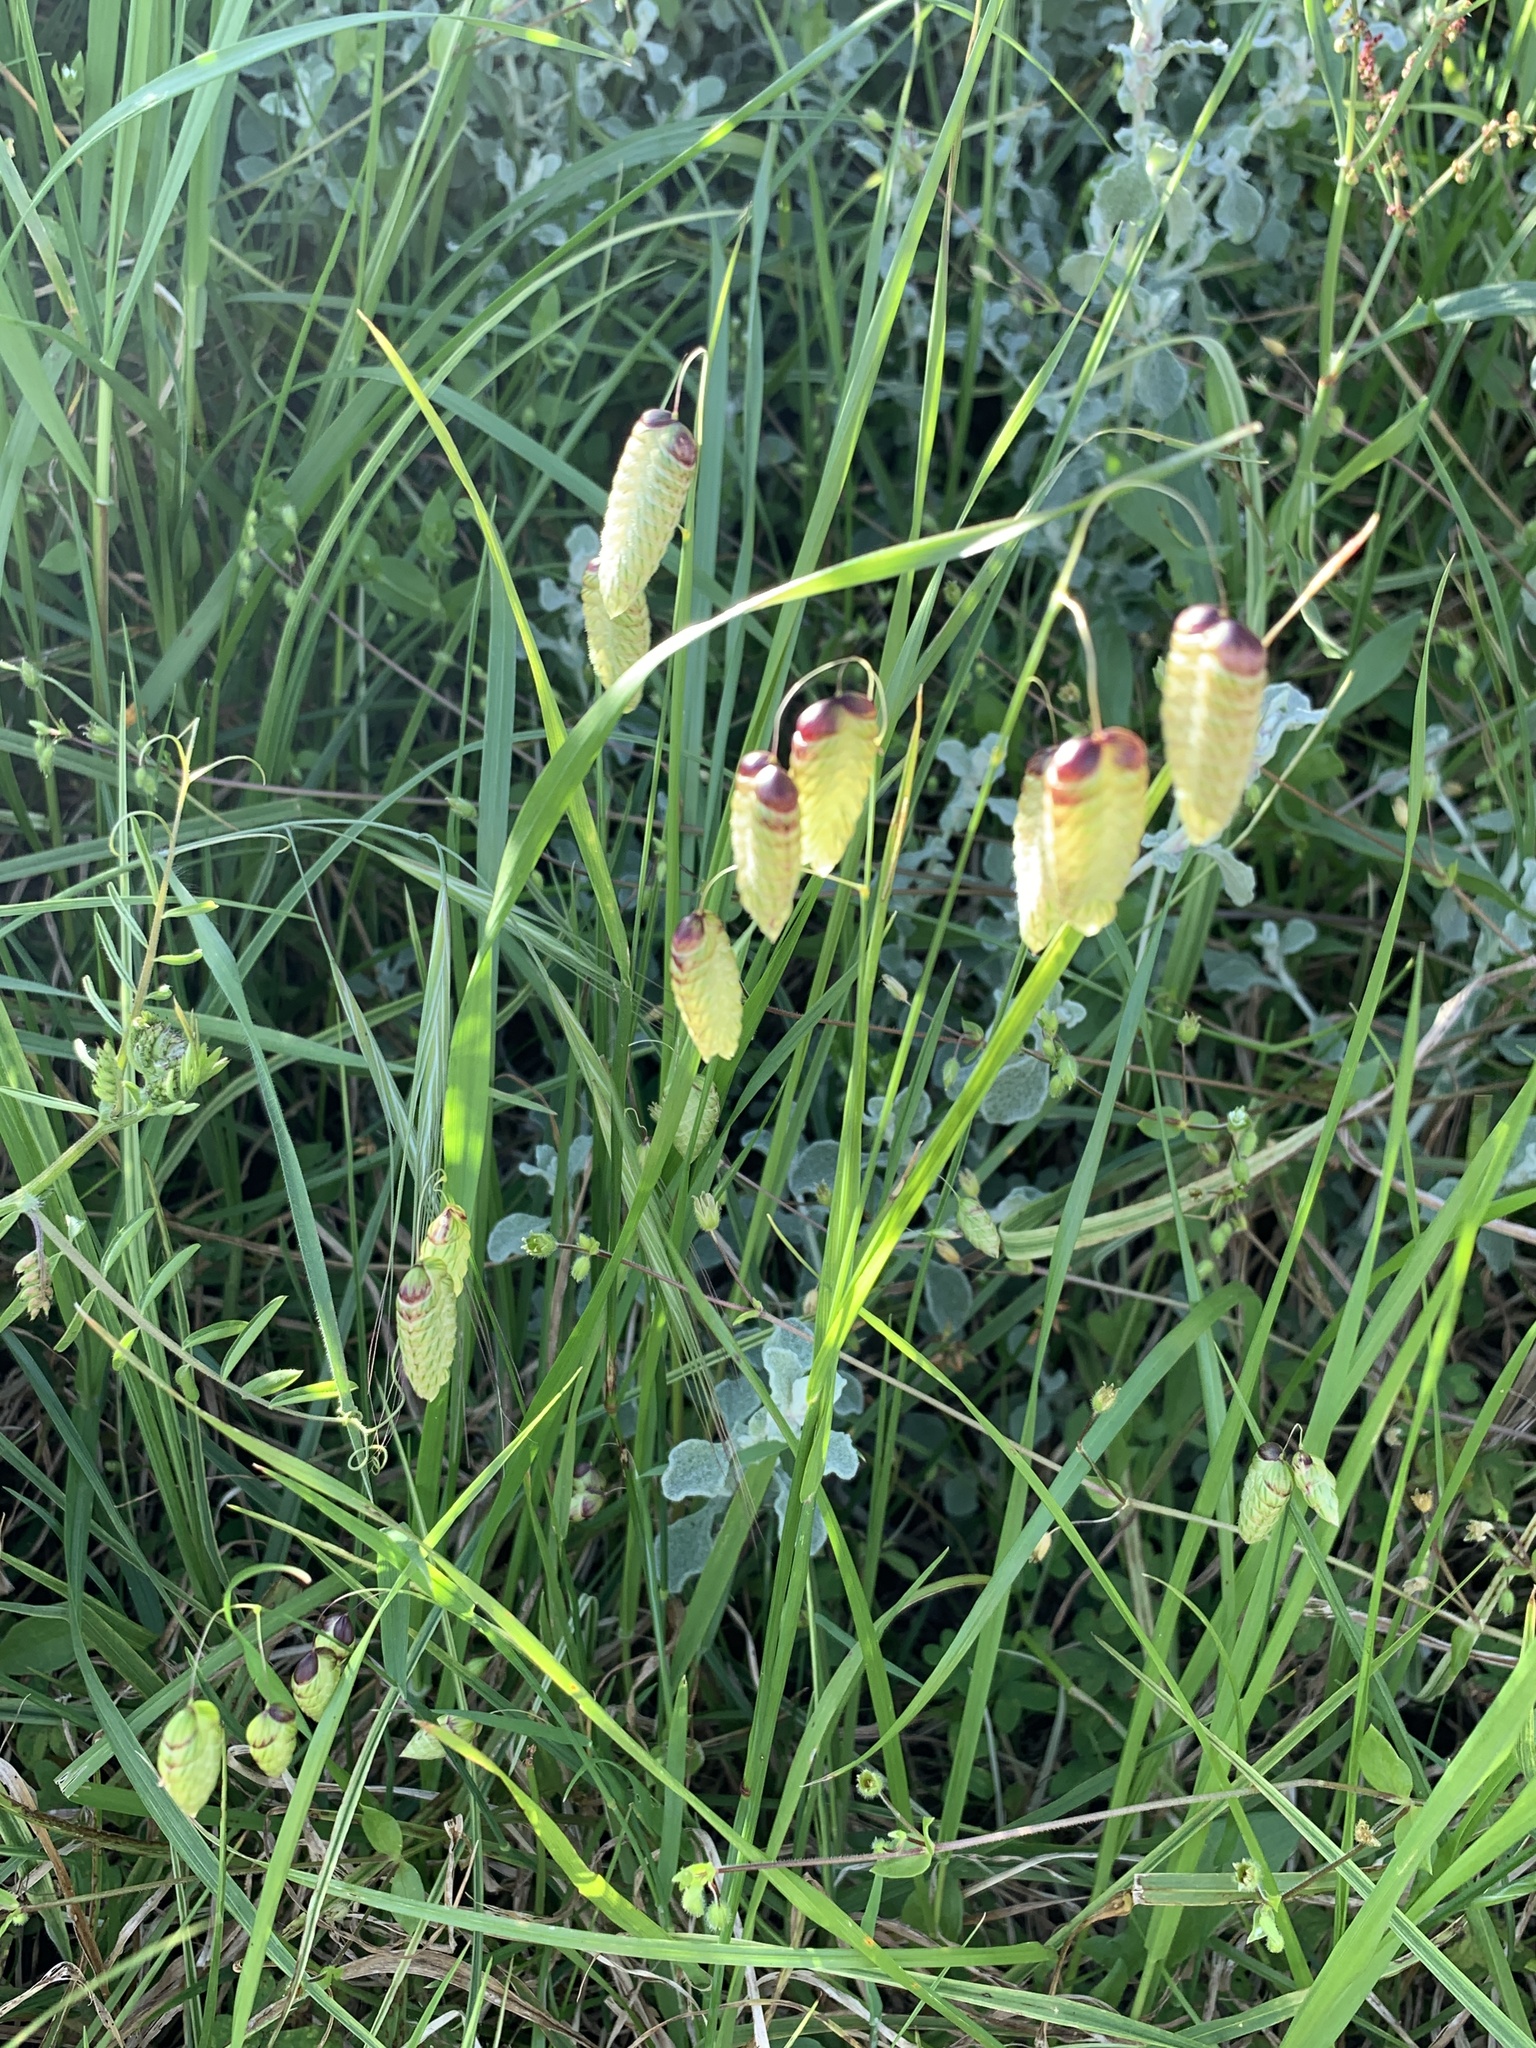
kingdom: Plantae
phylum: Tracheophyta
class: Liliopsida
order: Poales
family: Poaceae
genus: Briza
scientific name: Briza maxima
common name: Big quakinggrass
